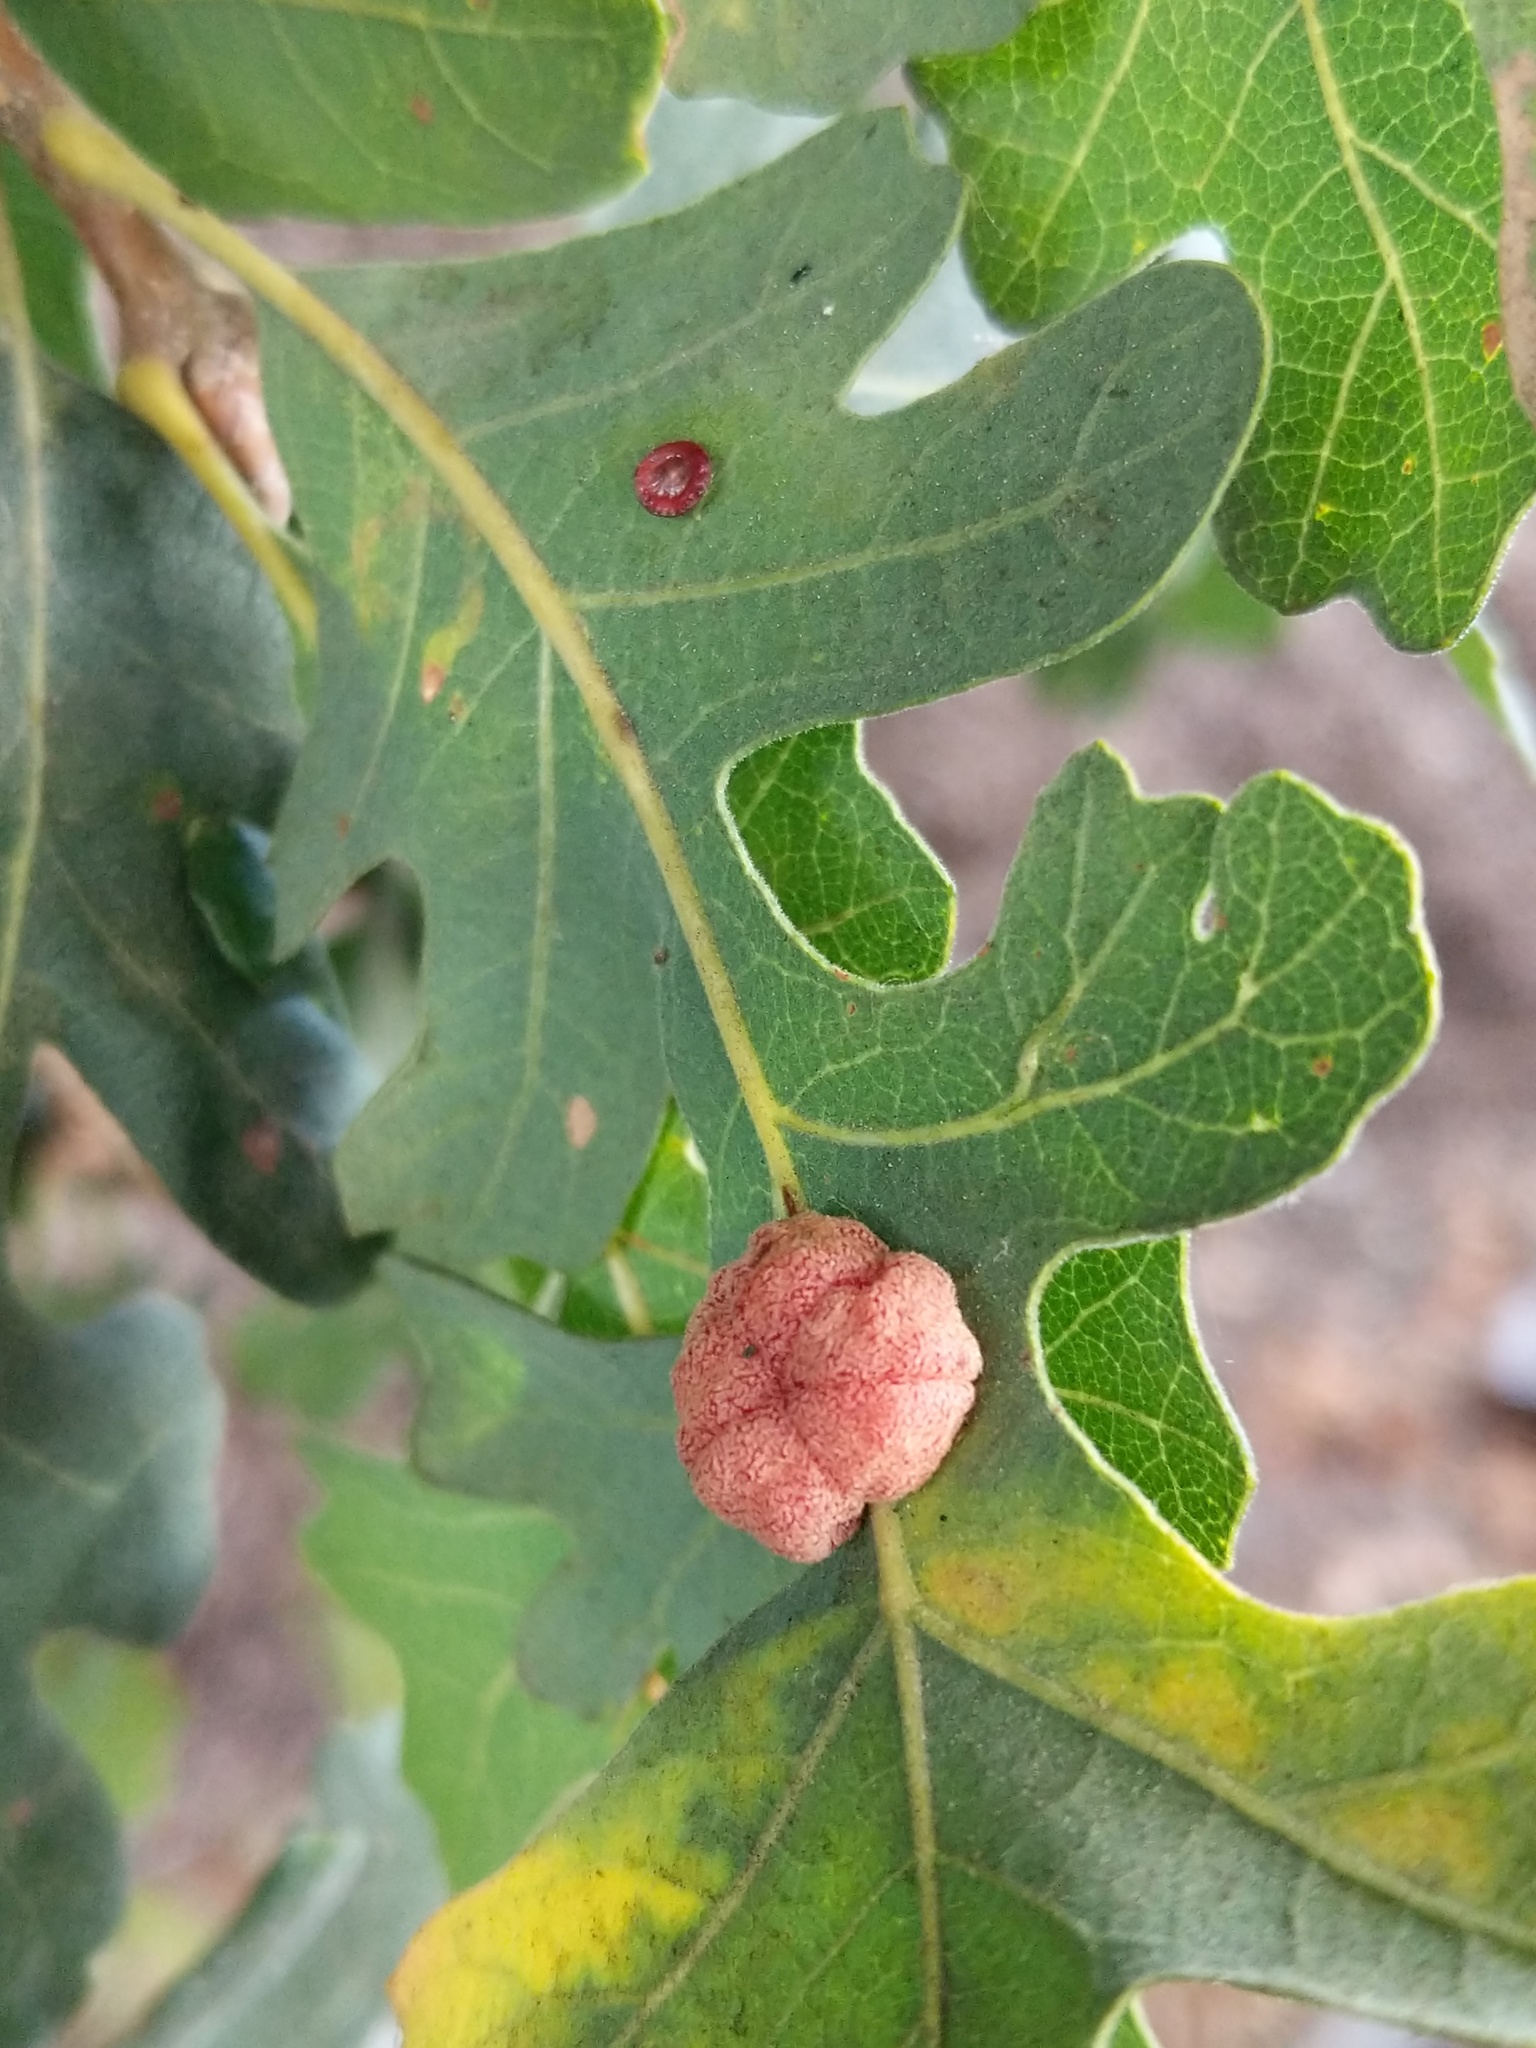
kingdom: Animalia
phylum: Arthropoda
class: Insecta
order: Hymenoptera
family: Cynipidae
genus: Andricus
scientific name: Andricus
